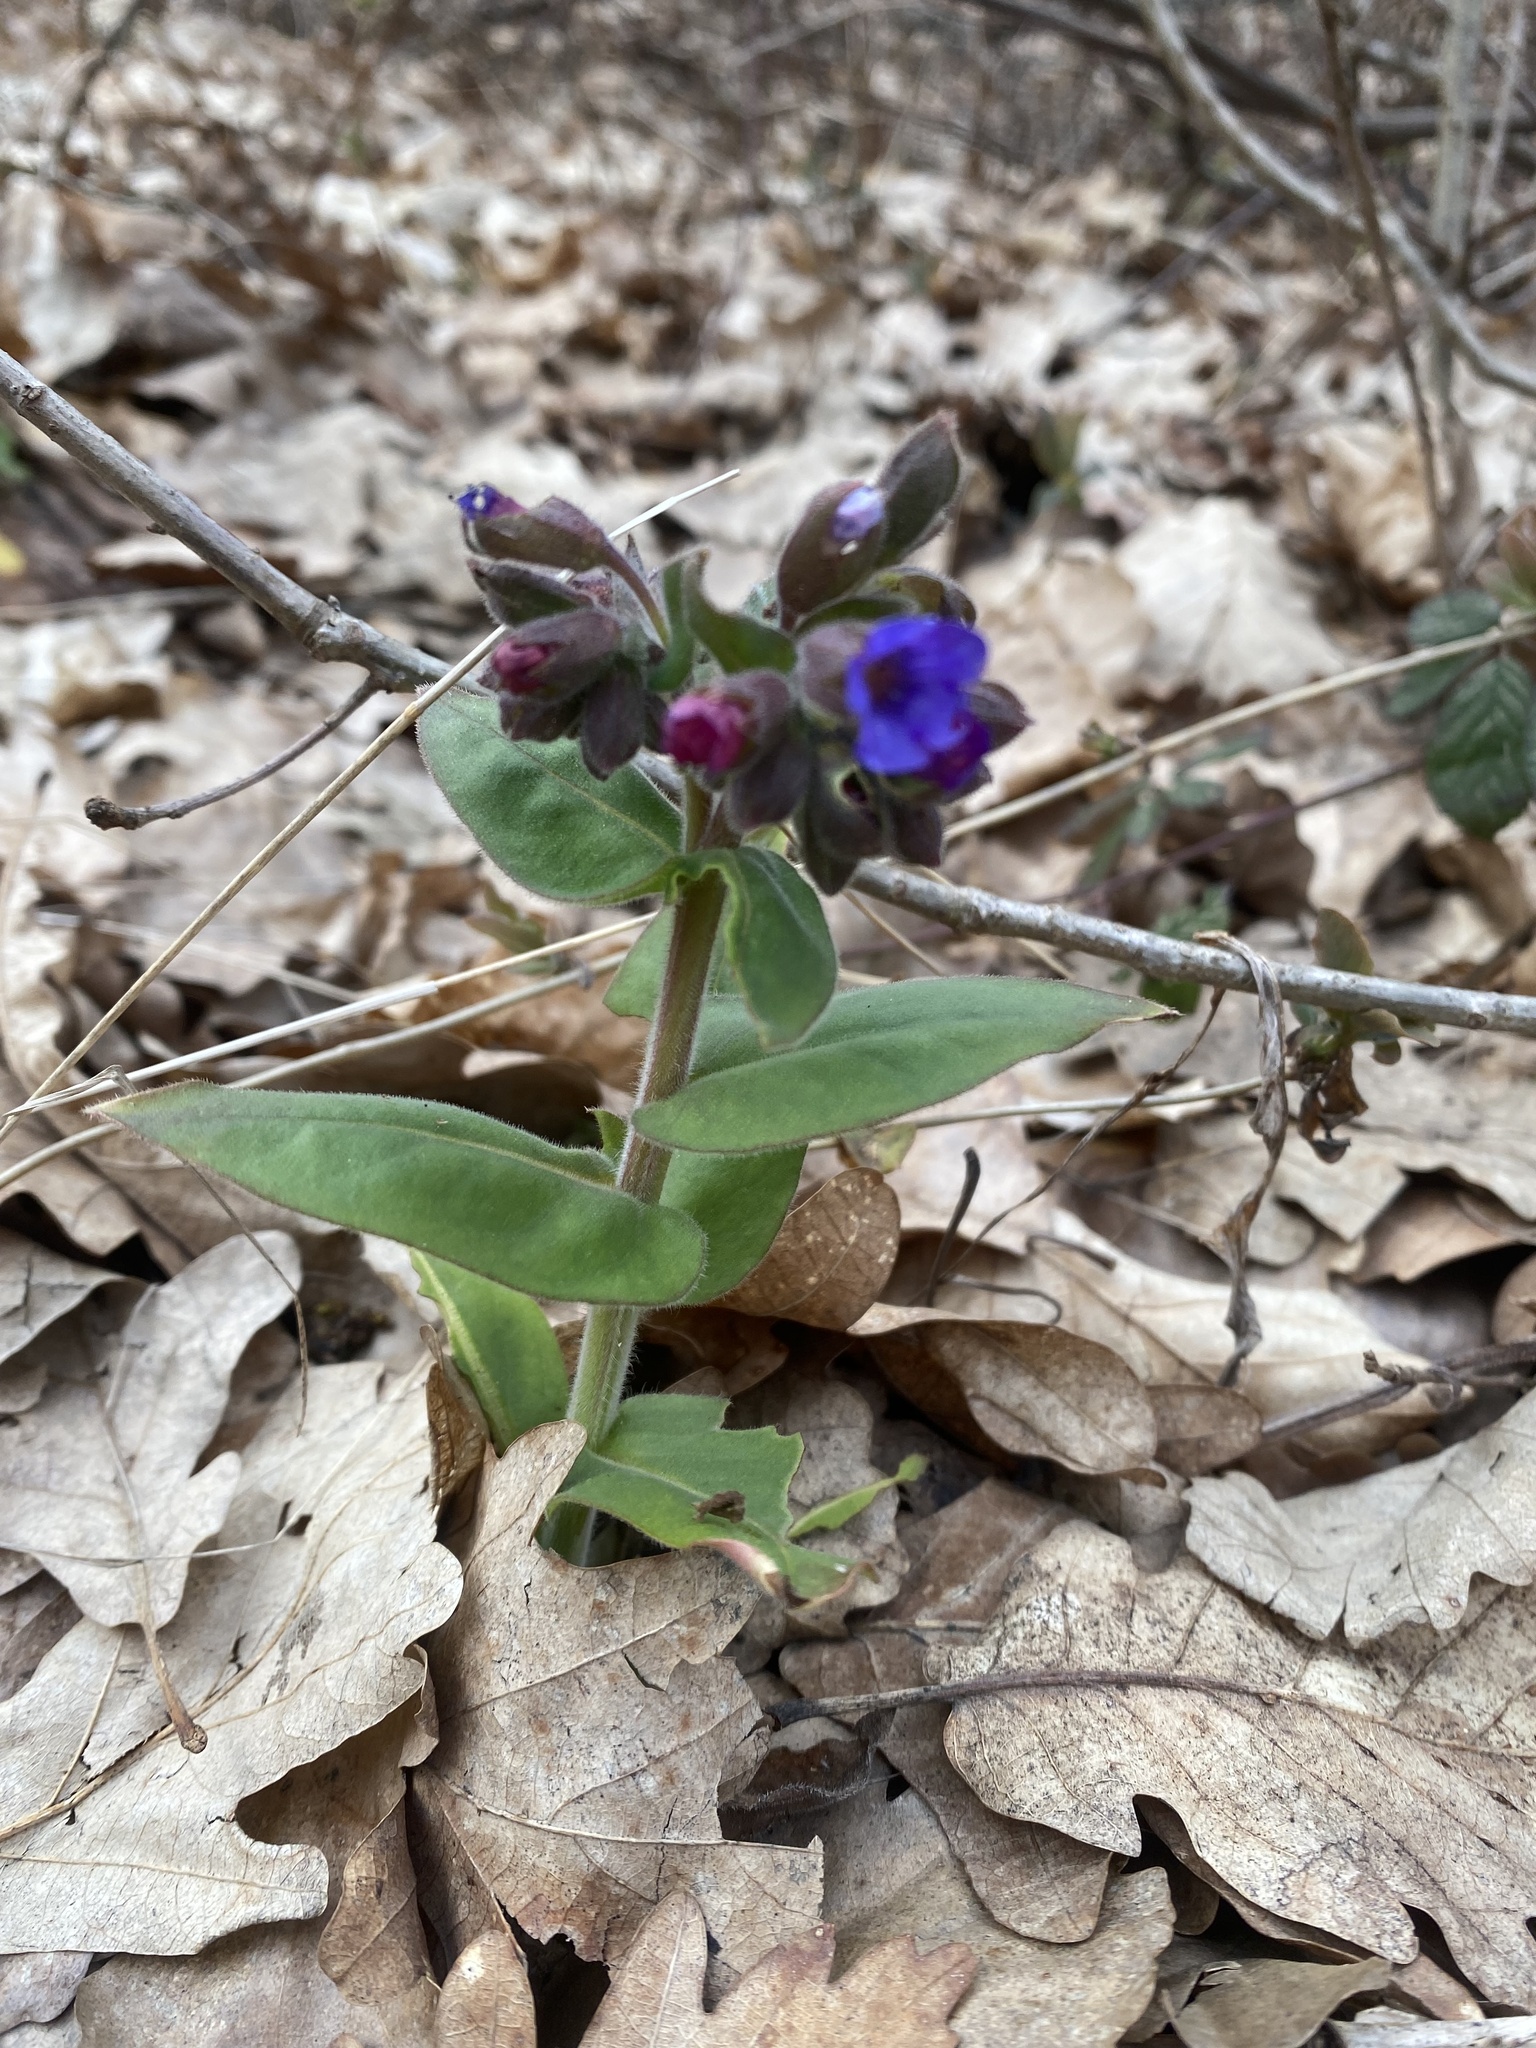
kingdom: Plantae
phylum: Tracheophyta
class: Magnoliopsida
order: Boraginales
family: Boraginaceae
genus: Pulmonaria
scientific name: Pulmonaria mollis
